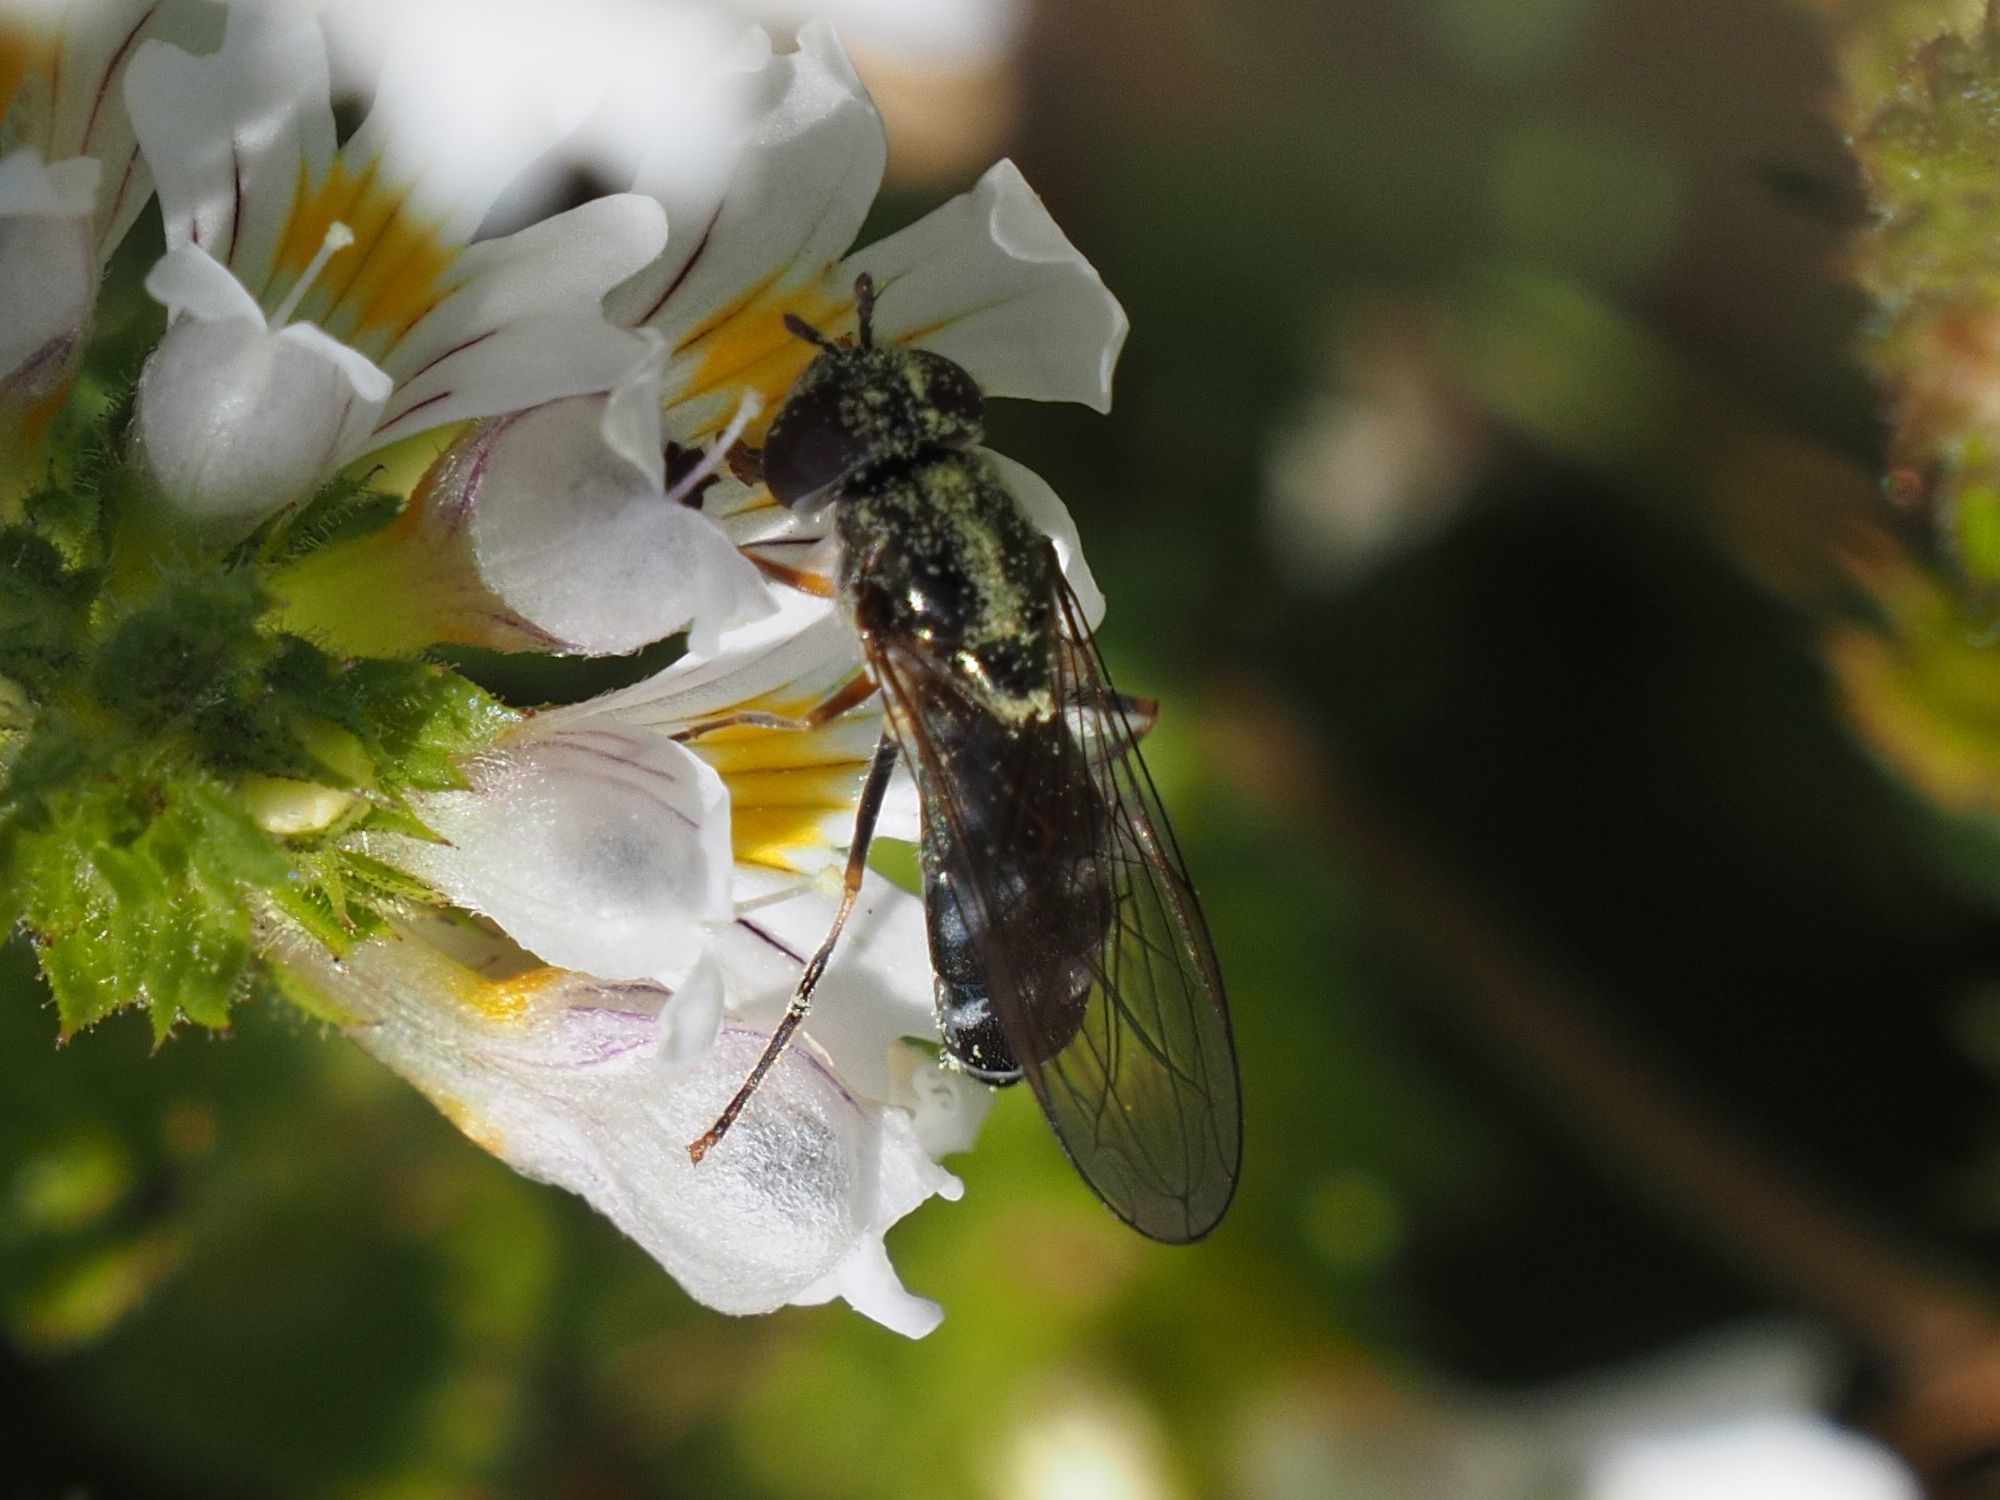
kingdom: Animalia
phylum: Arthropoda
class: Insecta
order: Diptera
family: Syrphidae
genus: Platycheirus
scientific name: Platycheirus albimanus
